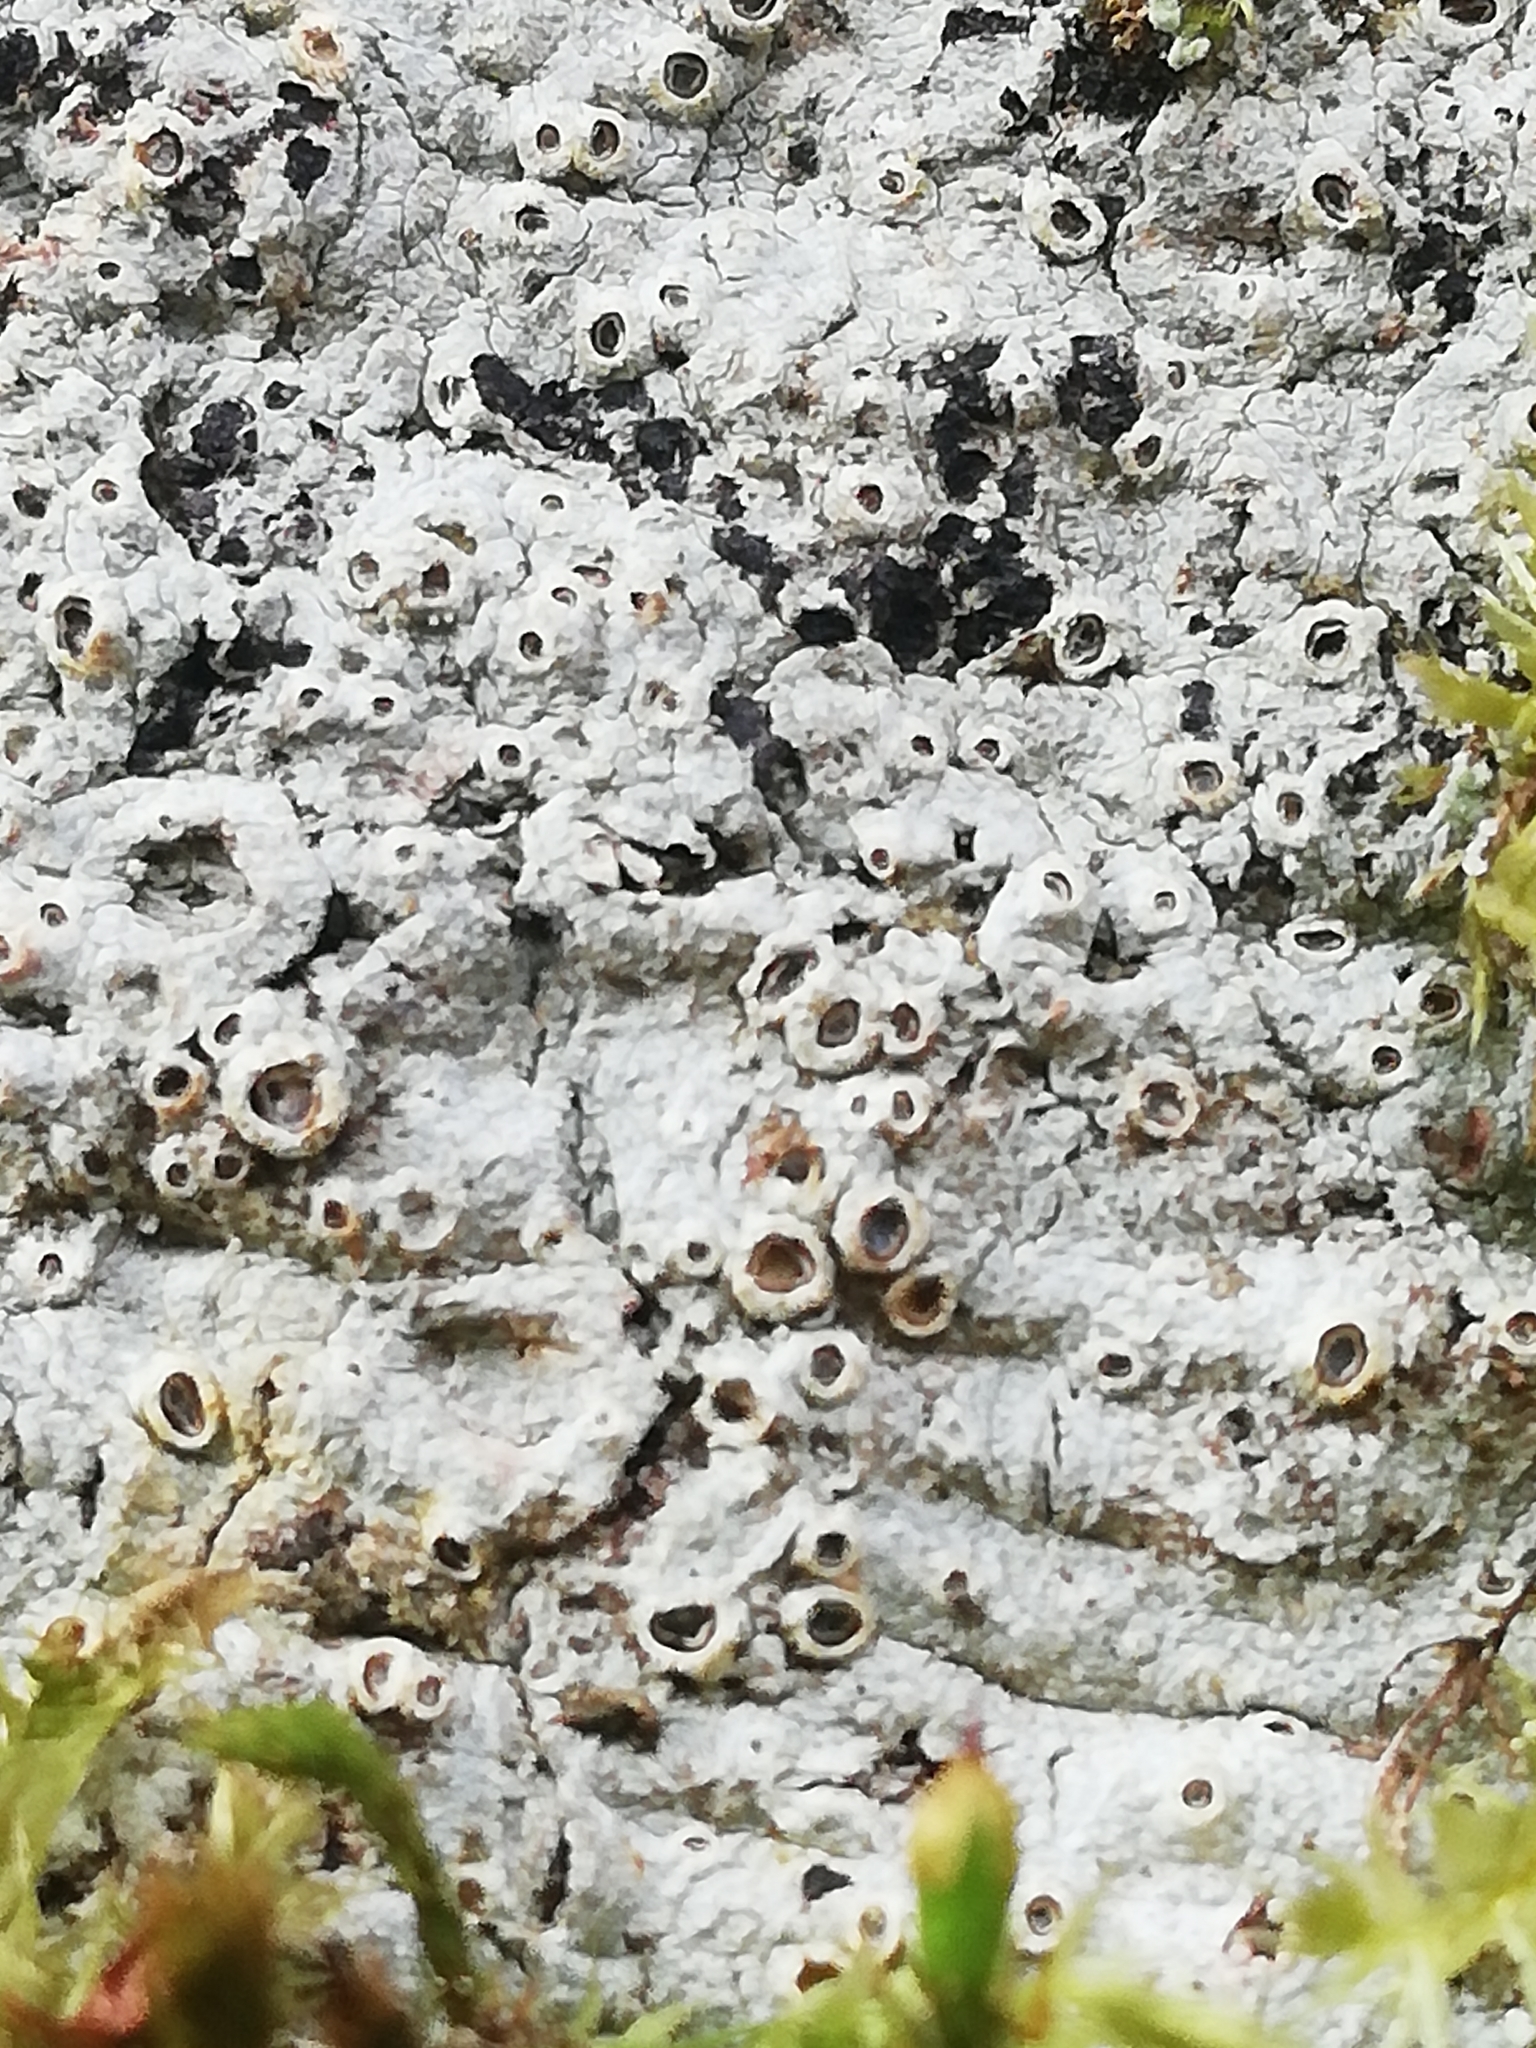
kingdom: Fungi
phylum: Ascomycota
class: Lecanoromycetes
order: Ostropales
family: Graphidaceae
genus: Thelotrema
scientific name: Thelotrema lepadinum
